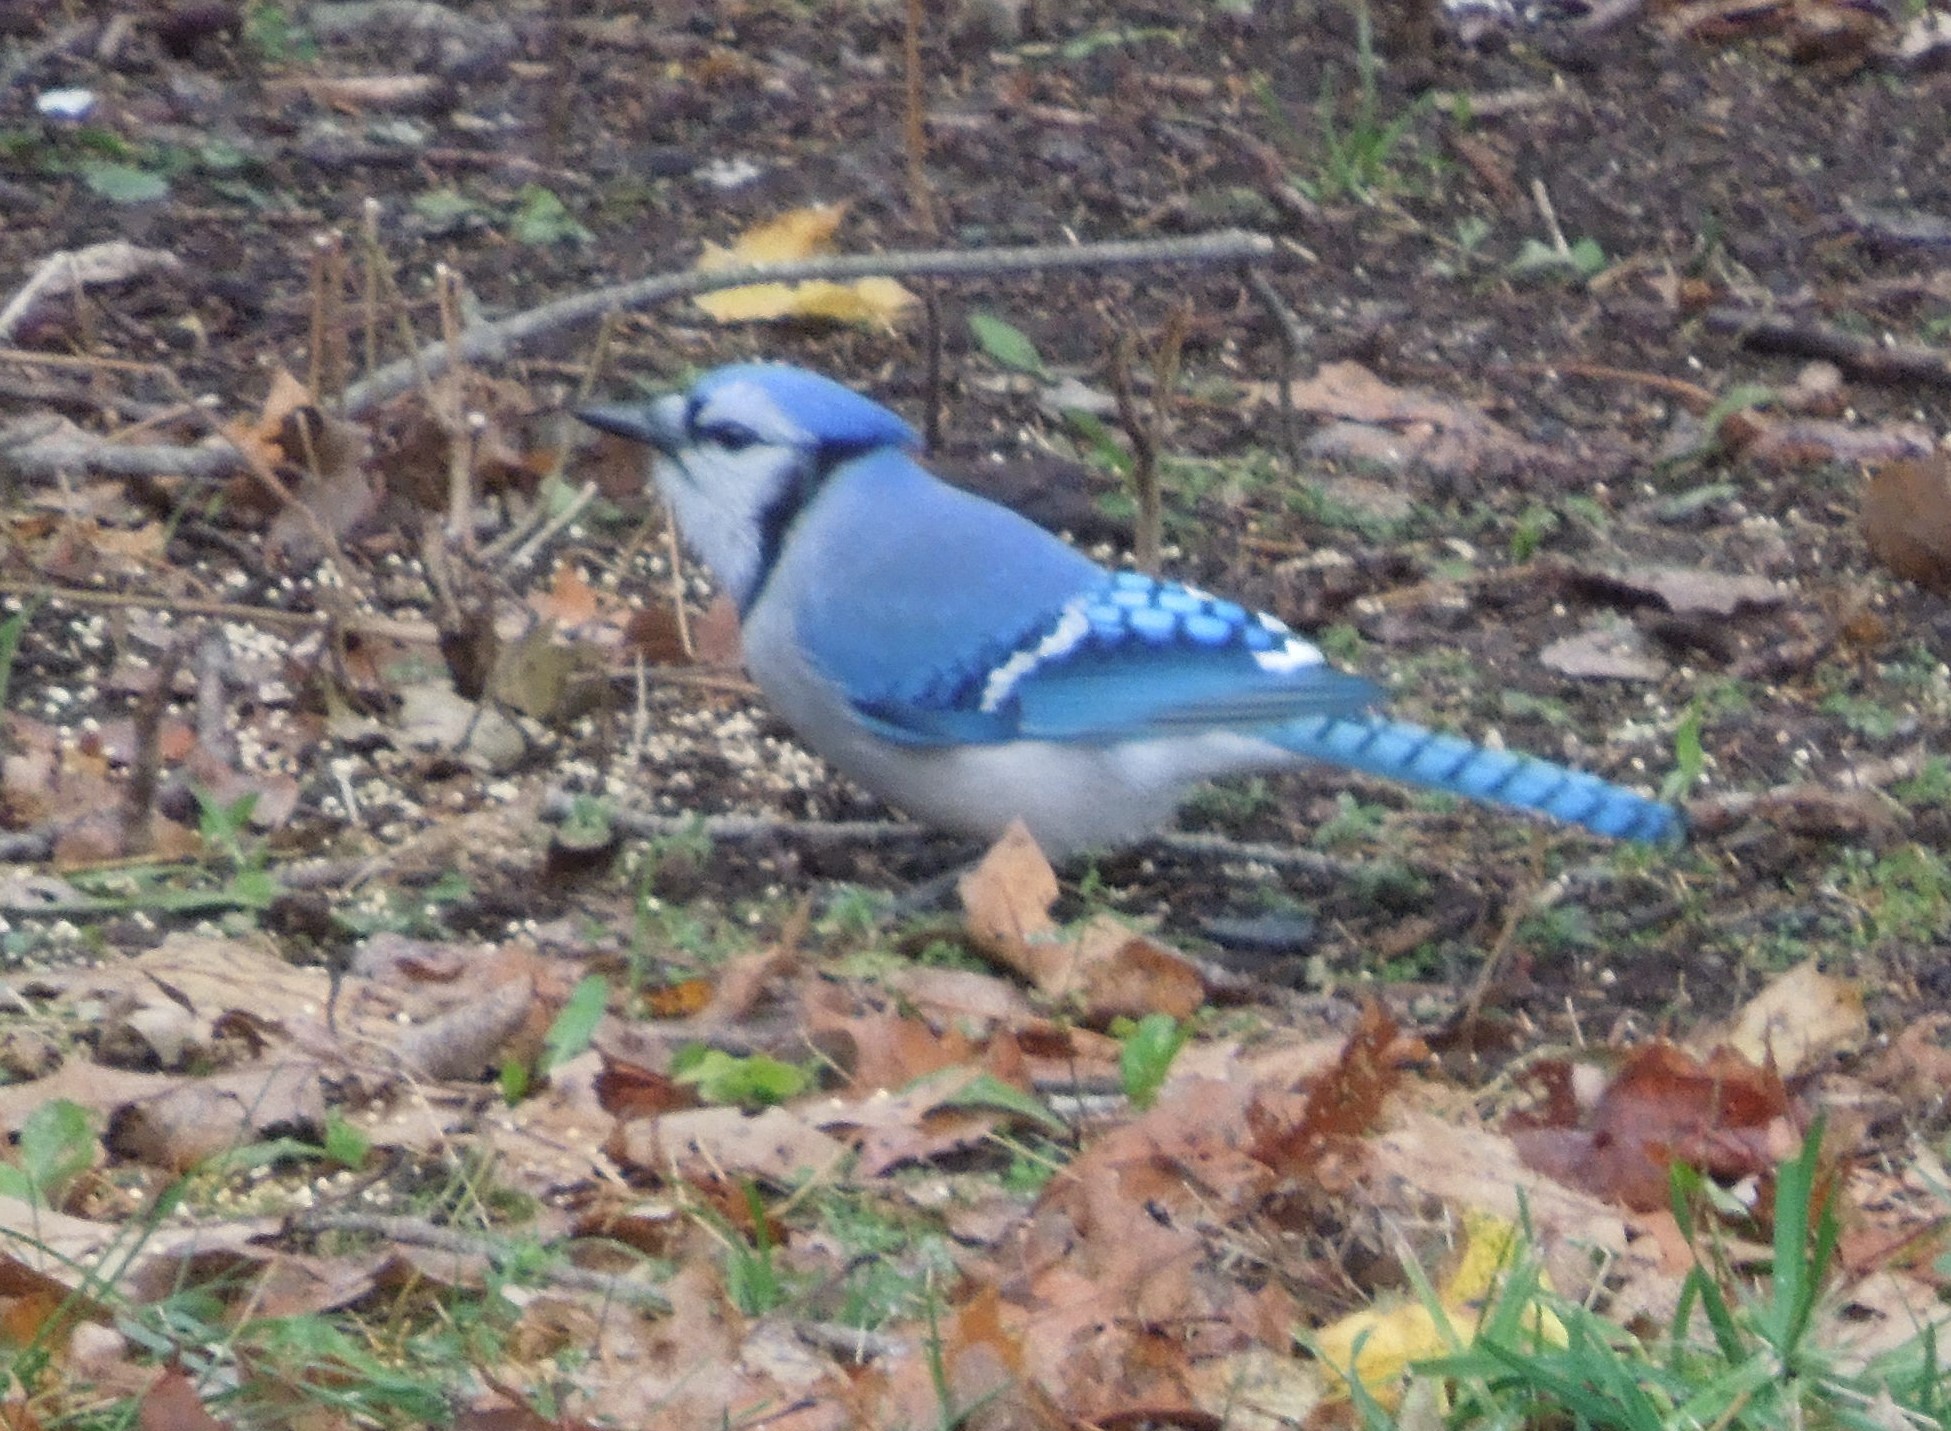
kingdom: Animalia
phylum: Chordata
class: Aves
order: Passeriformes
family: Corvidae
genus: Cyanocitta
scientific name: Cyanocitta cristata
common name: Blue jay
